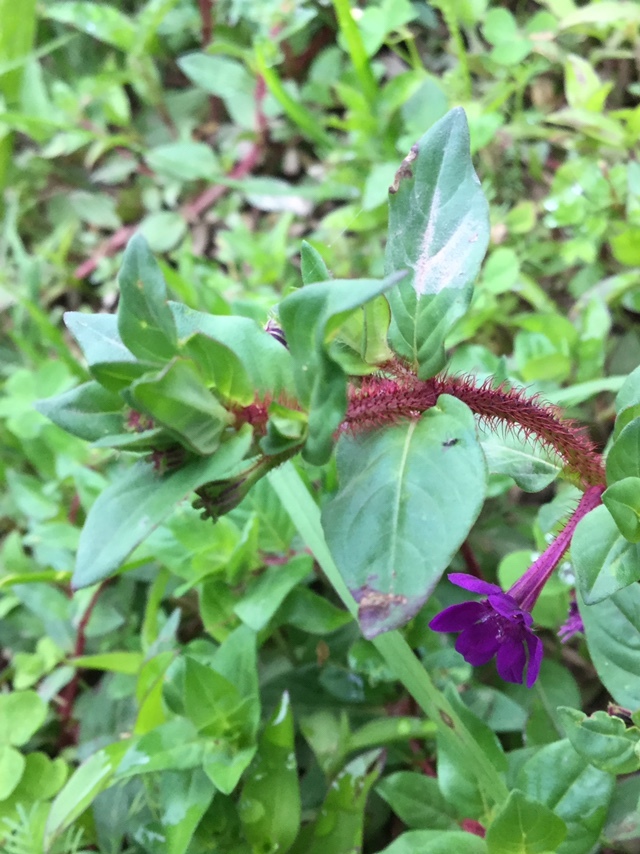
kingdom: Plantae
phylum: Tracheophyta
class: Magnoliopsida
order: Myrtales
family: Lythraceae
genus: Cuphea
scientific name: Cuphea aequipetala
